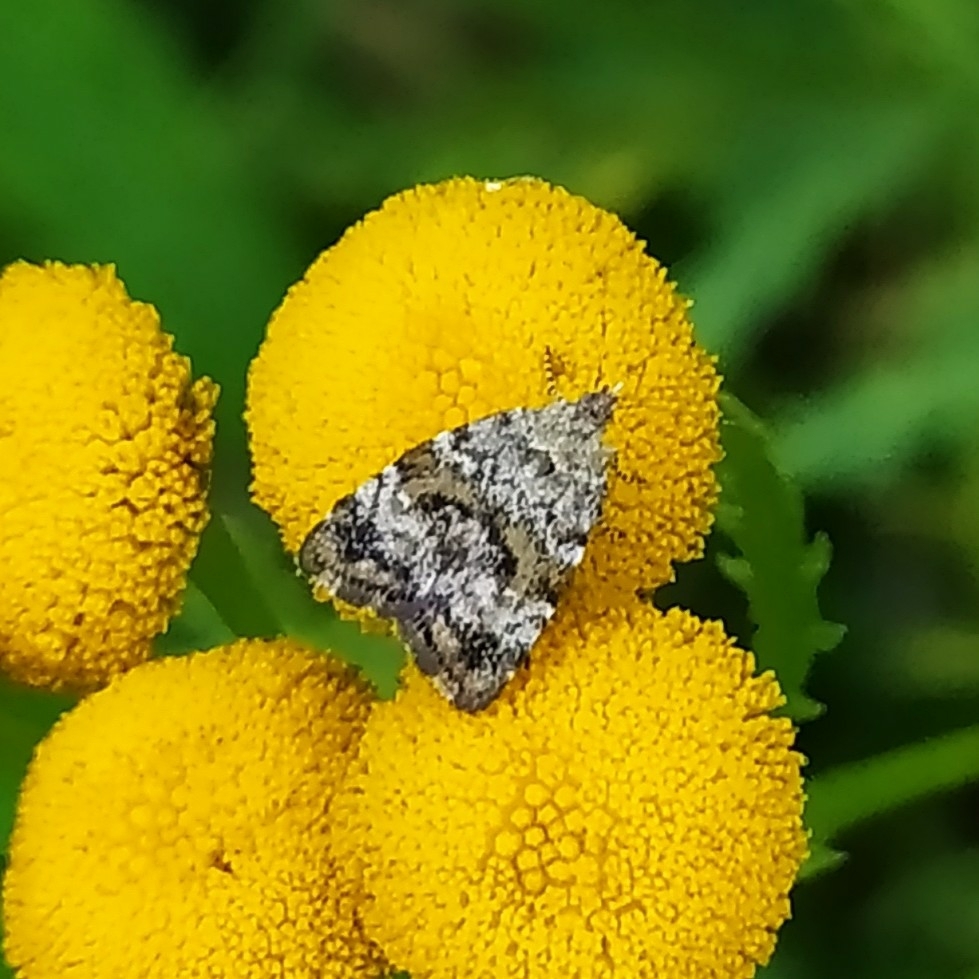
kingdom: Animalia
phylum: Arthropoda
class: Insecta
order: Lepidoptera
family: Choreutidae
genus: Choreutis
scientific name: Choreutis diana
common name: Inverness twitcher
